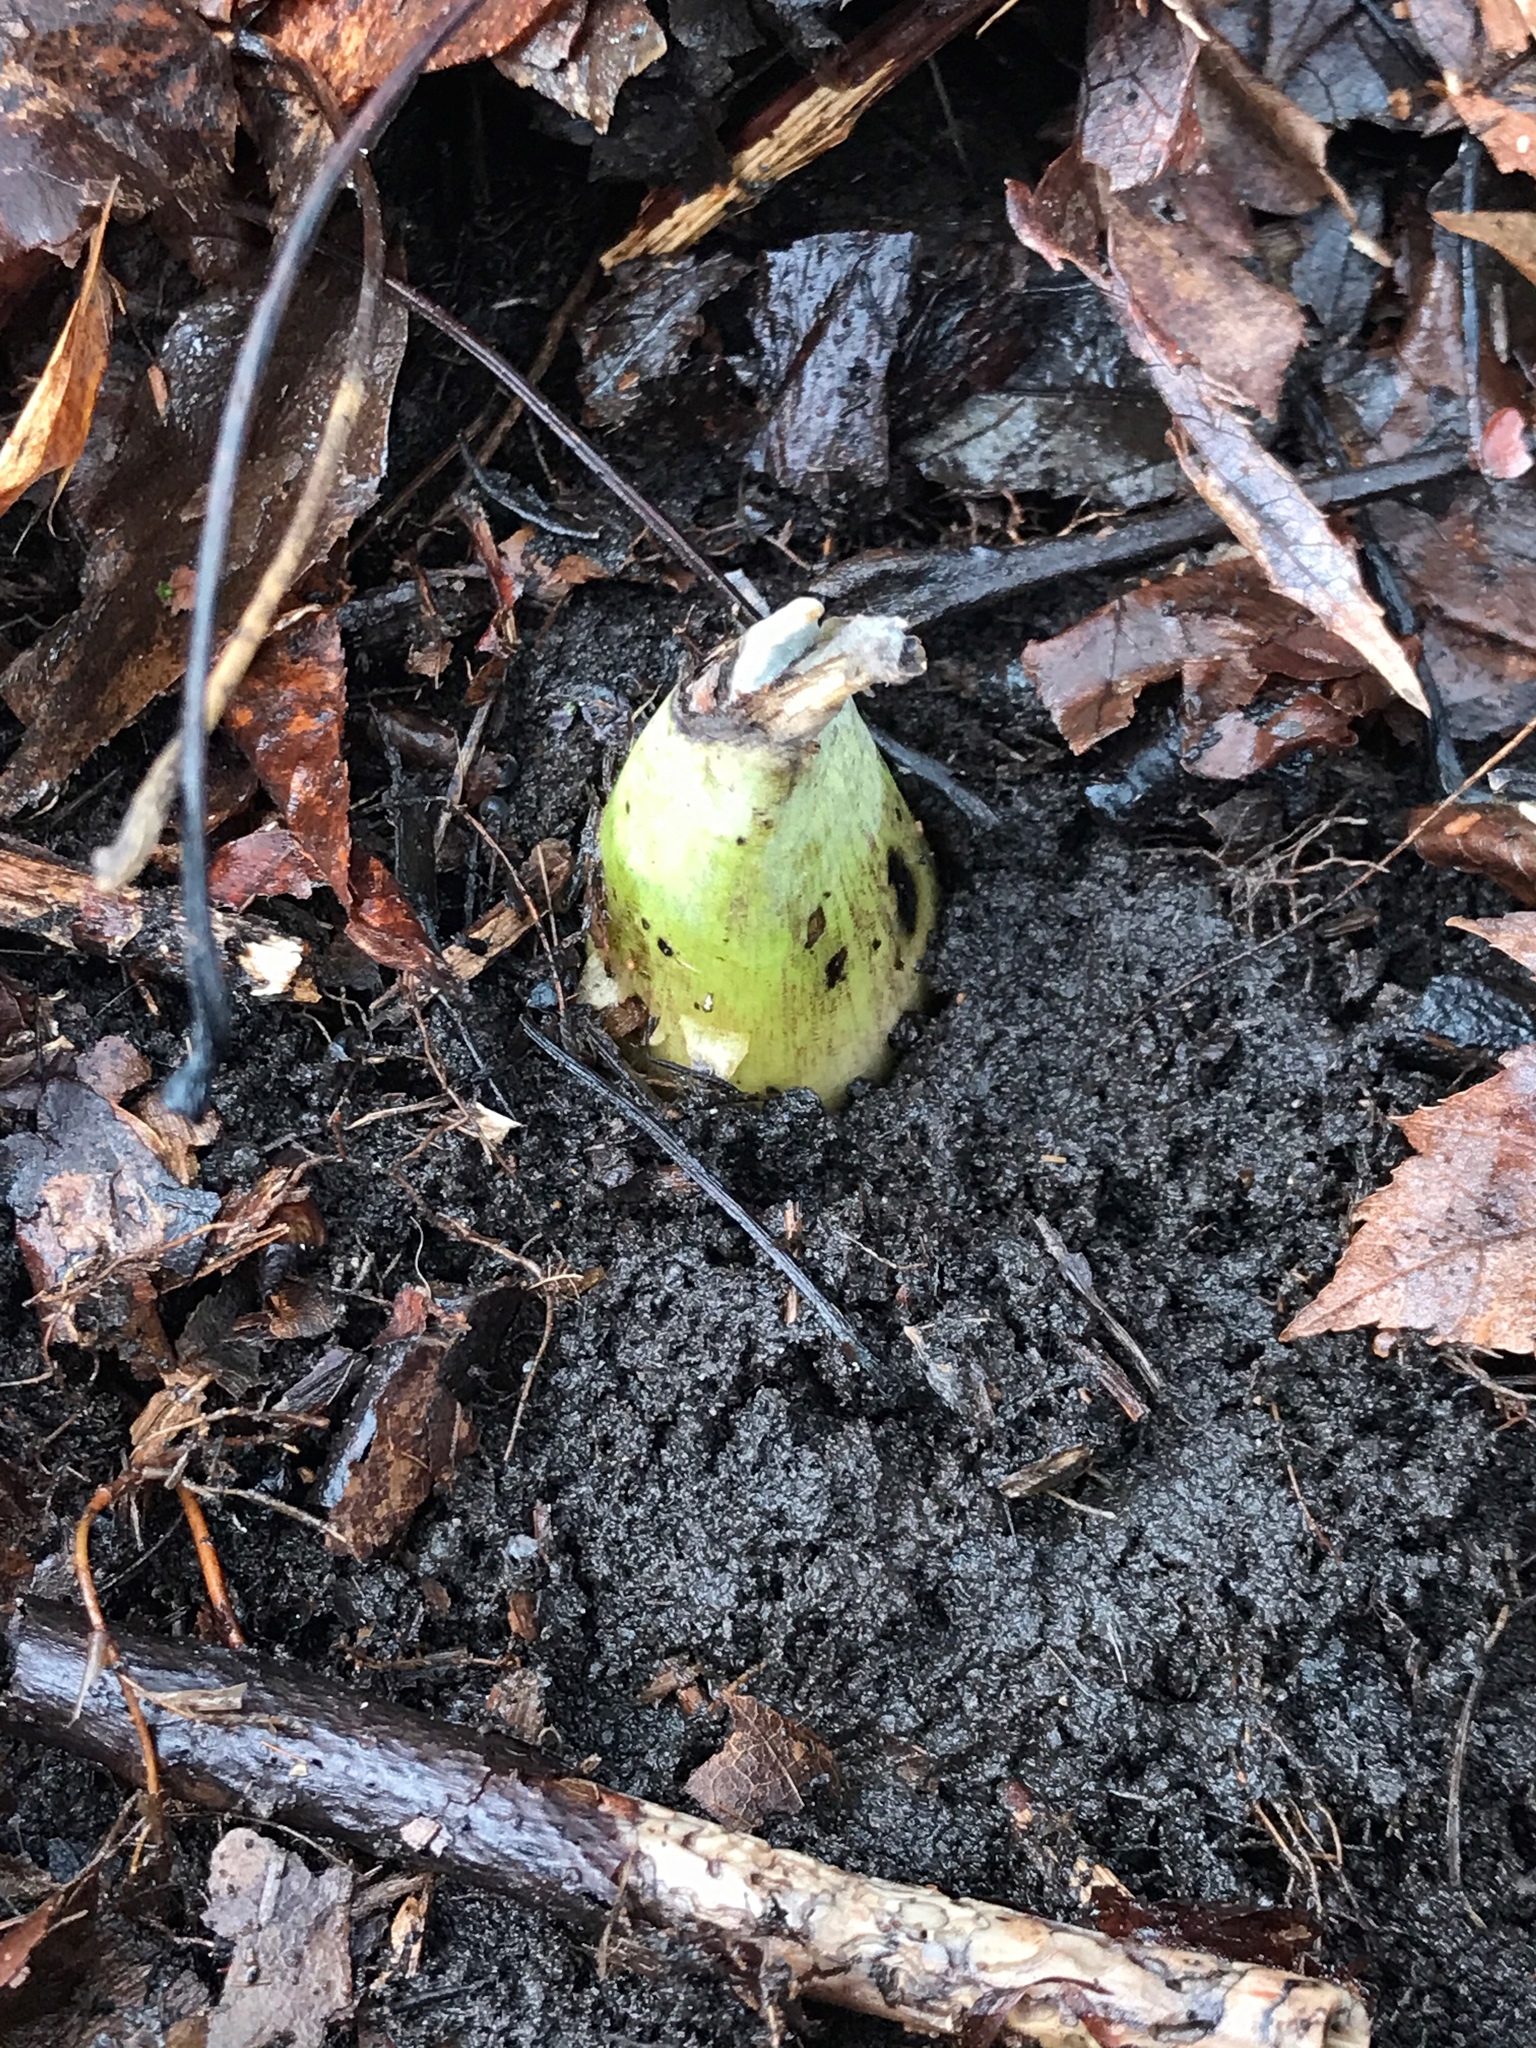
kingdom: Plantae
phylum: Tracheophyta
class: Liliopsida
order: Alismatales
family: Araceae
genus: Symplocarpus
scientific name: Symplocarpus foetidus
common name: Eastern skunk cabbage
